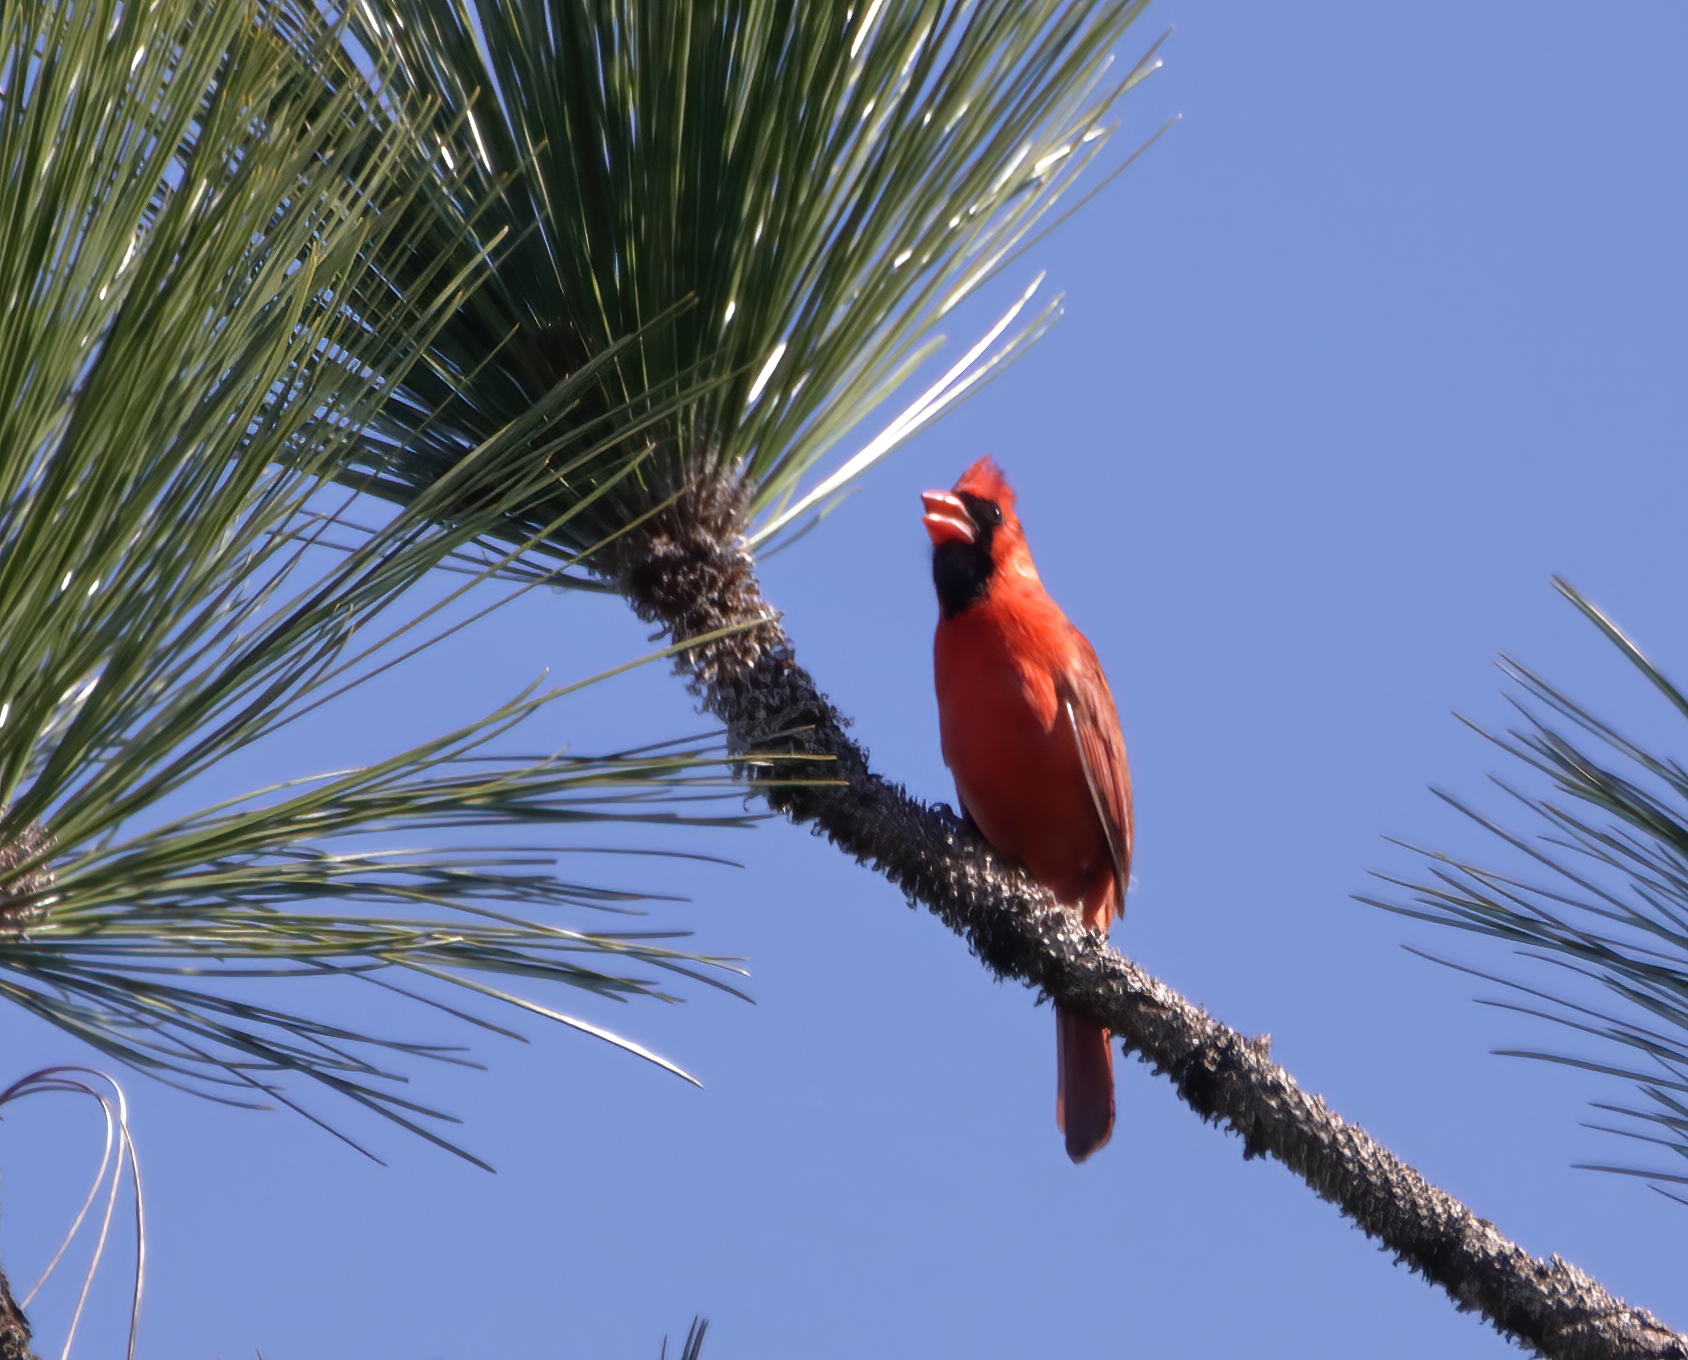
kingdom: Animalia
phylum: Chordata
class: Aves
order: Passeriformes
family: Cardinalidae
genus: Cardinalis
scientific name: Cardinalis cardinalis
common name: Northern cardinal
